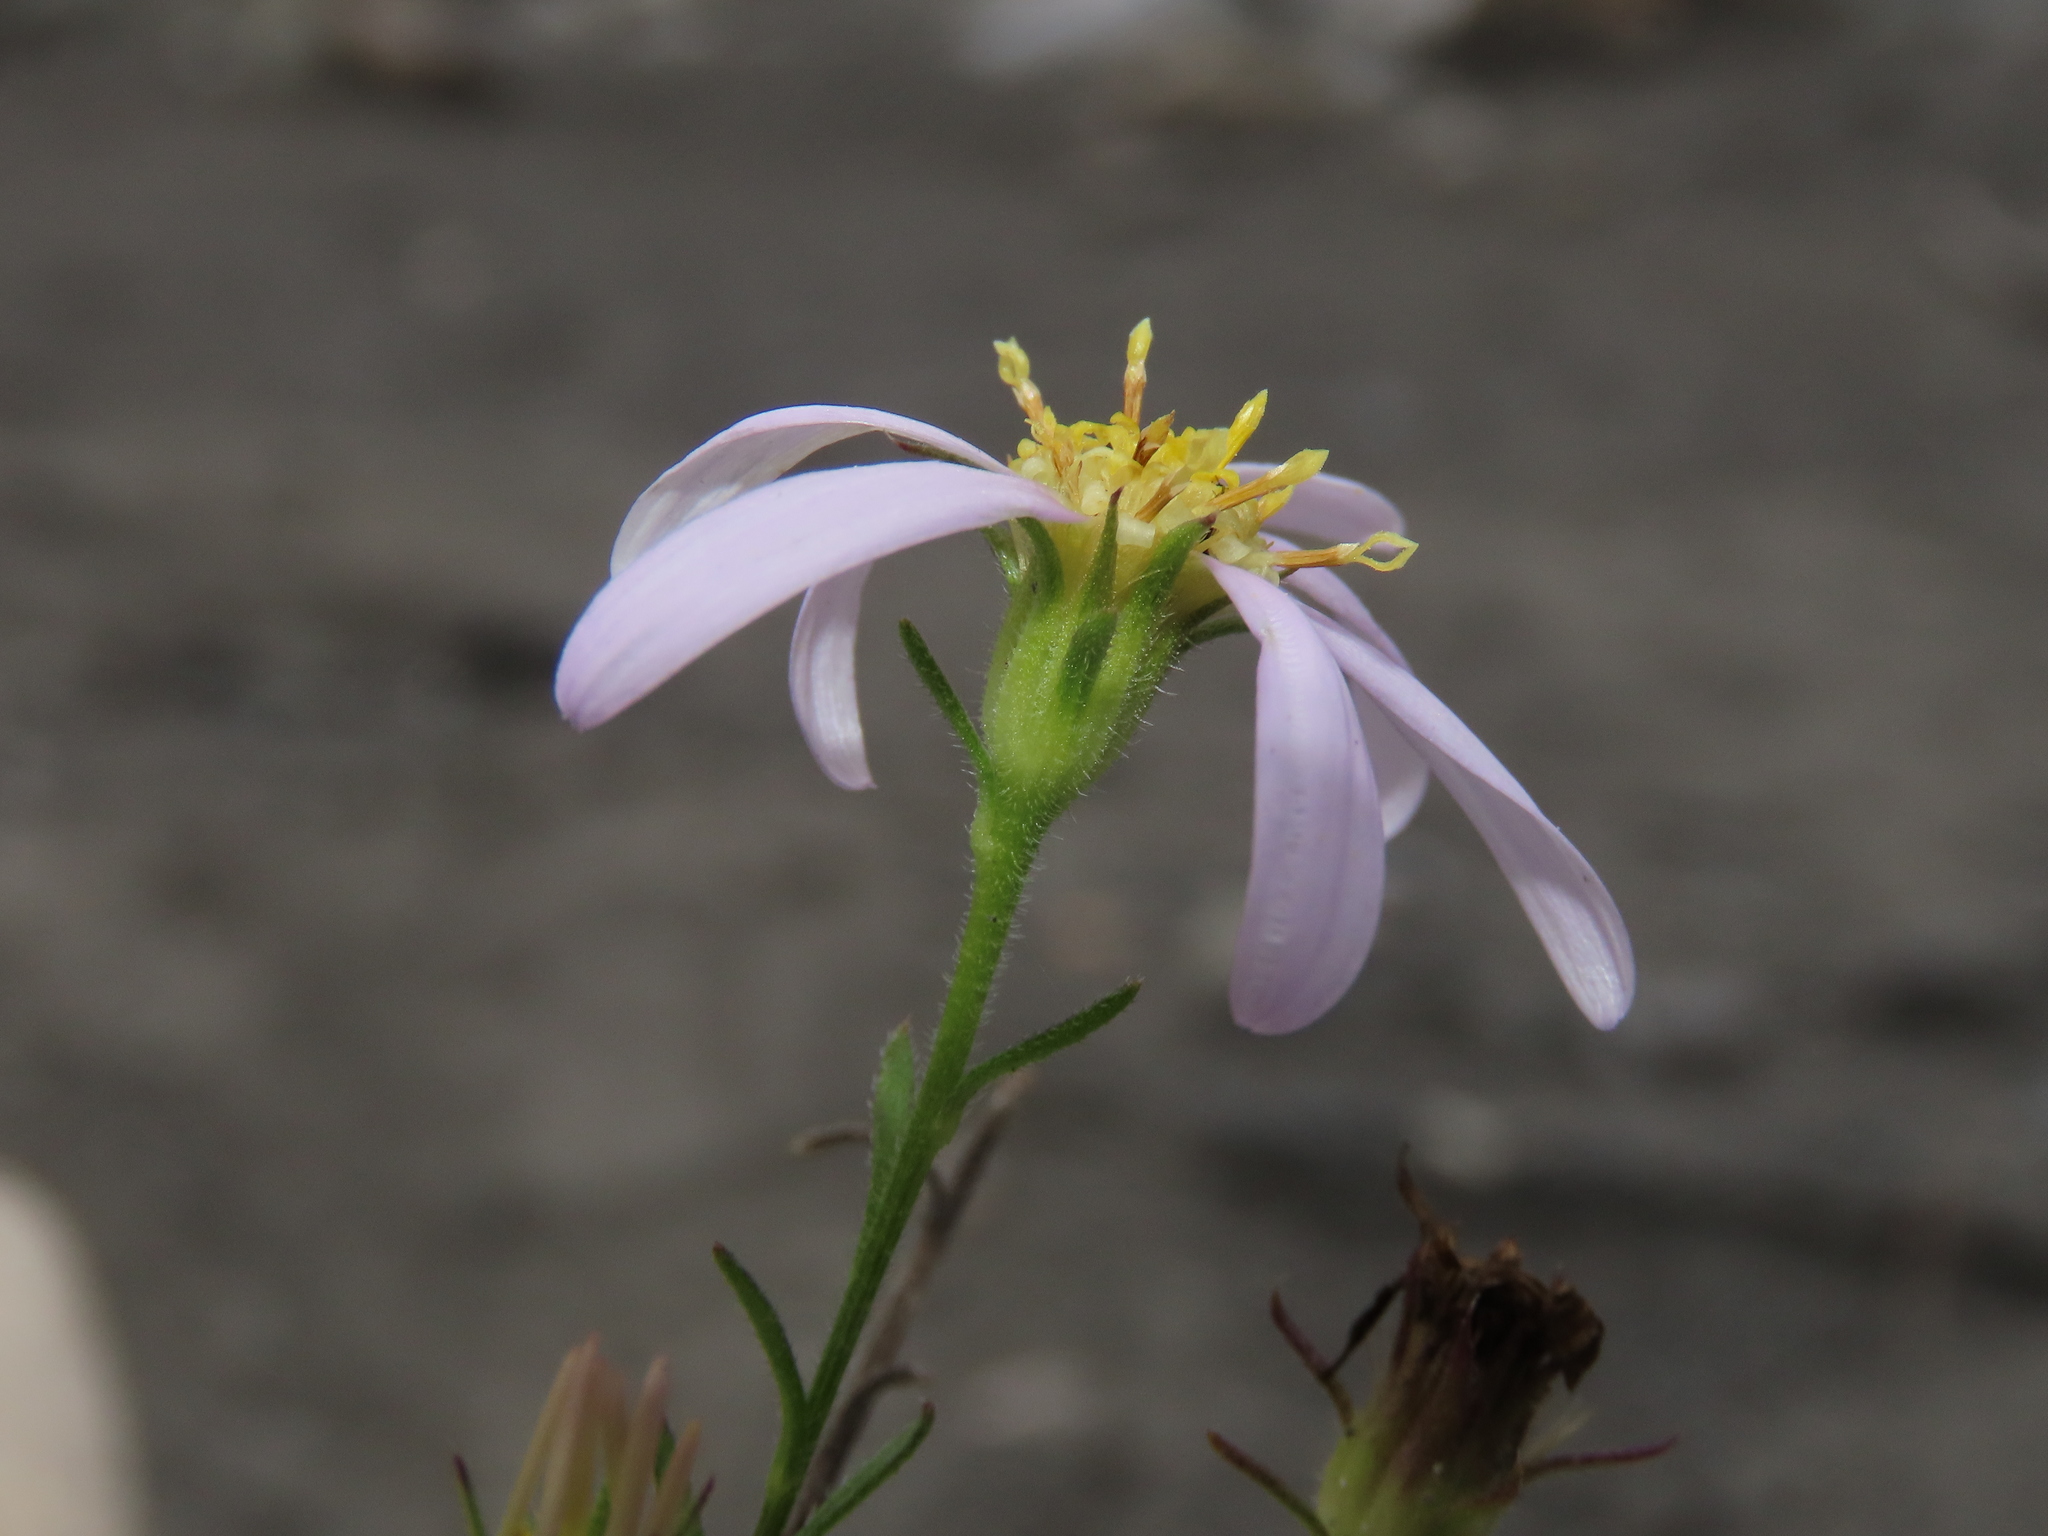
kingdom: Plantae
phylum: Tracheophyta
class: Magnoliopsida
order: Asterales
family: Asteraceae
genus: Heteropappus
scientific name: Heteropappus altaicus
